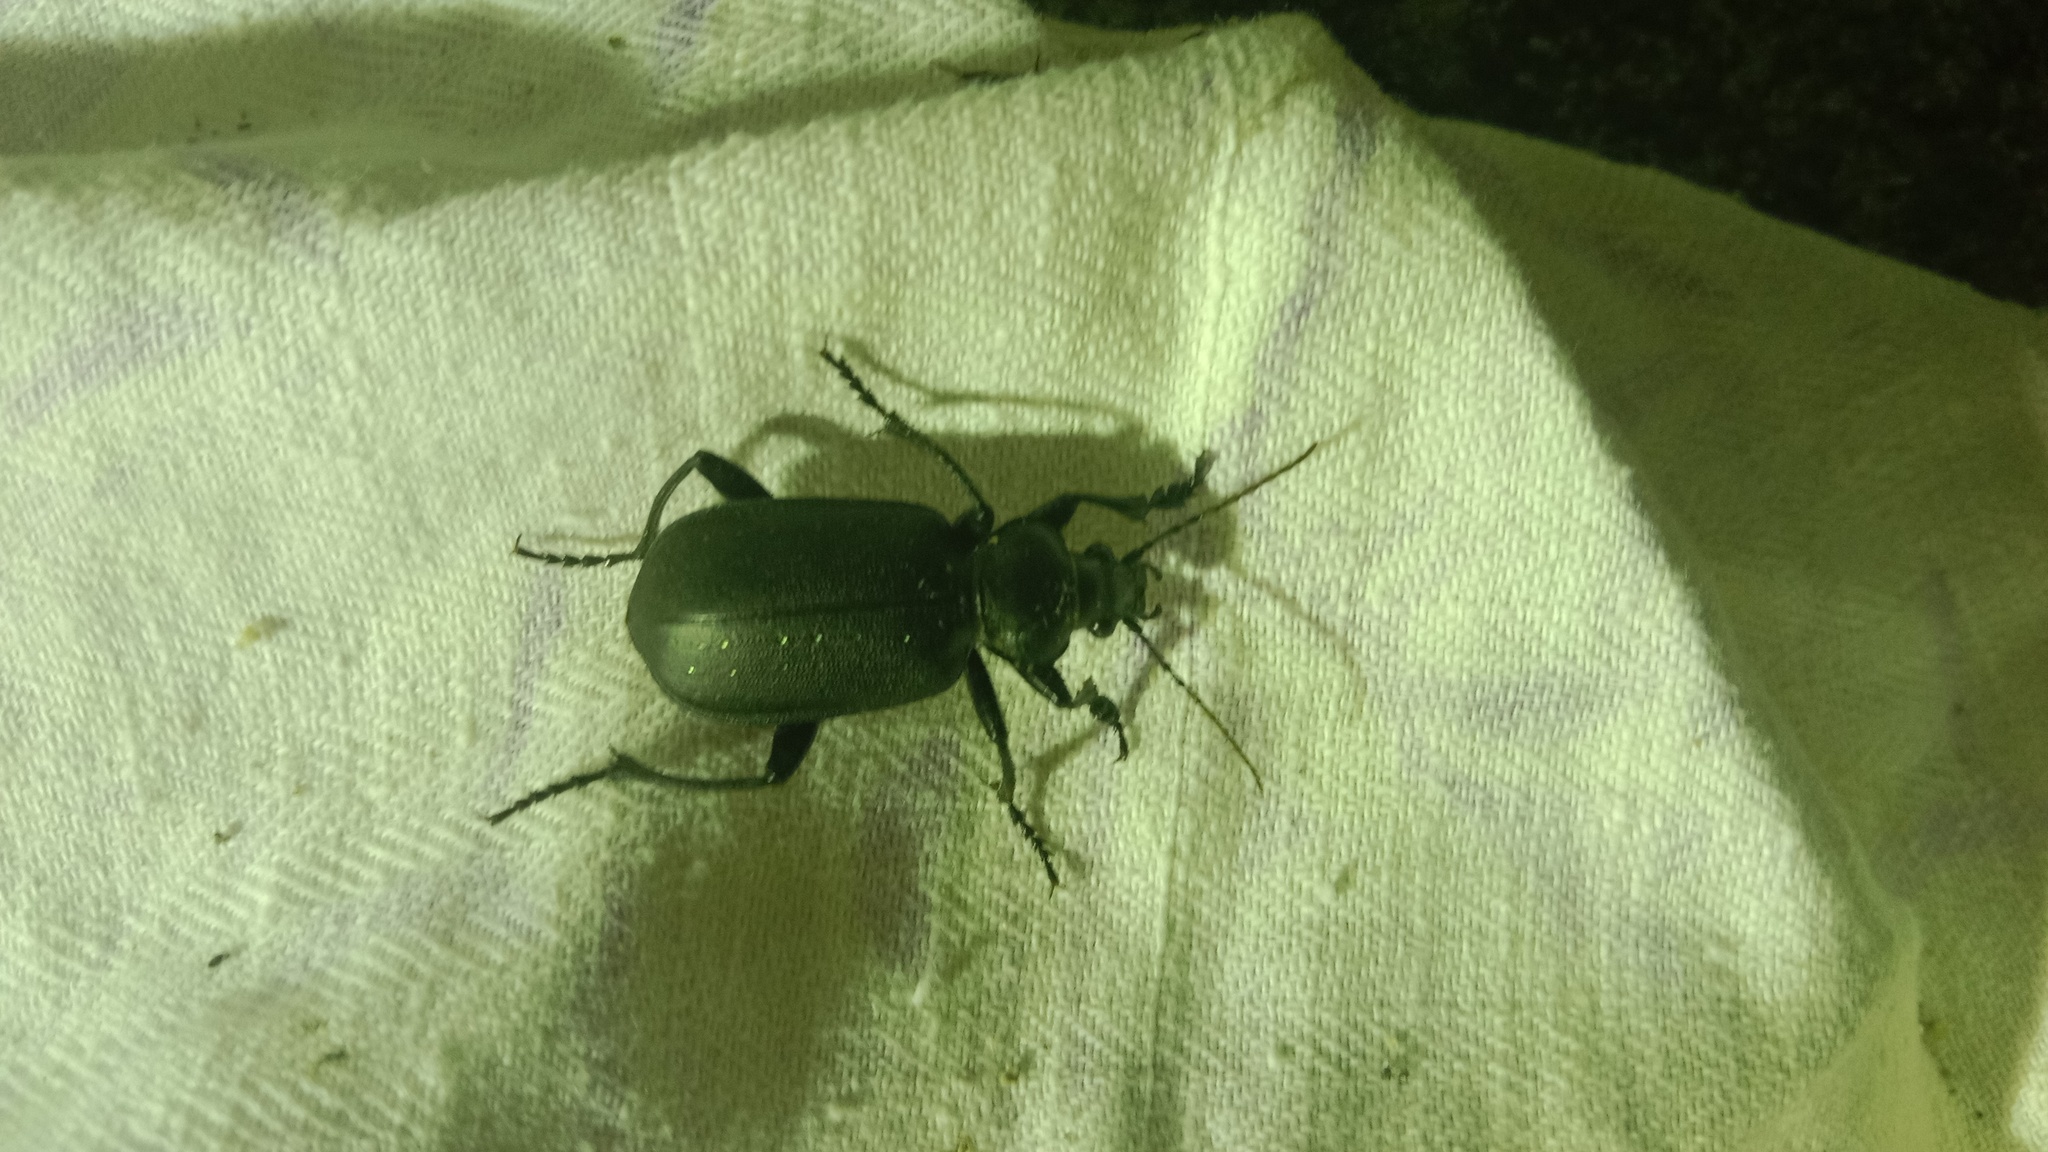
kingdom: Animalia
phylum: Arthropoda
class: Insecta
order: Coleoptera
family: Carabidae
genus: Calosoma
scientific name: Calosoma maderae
